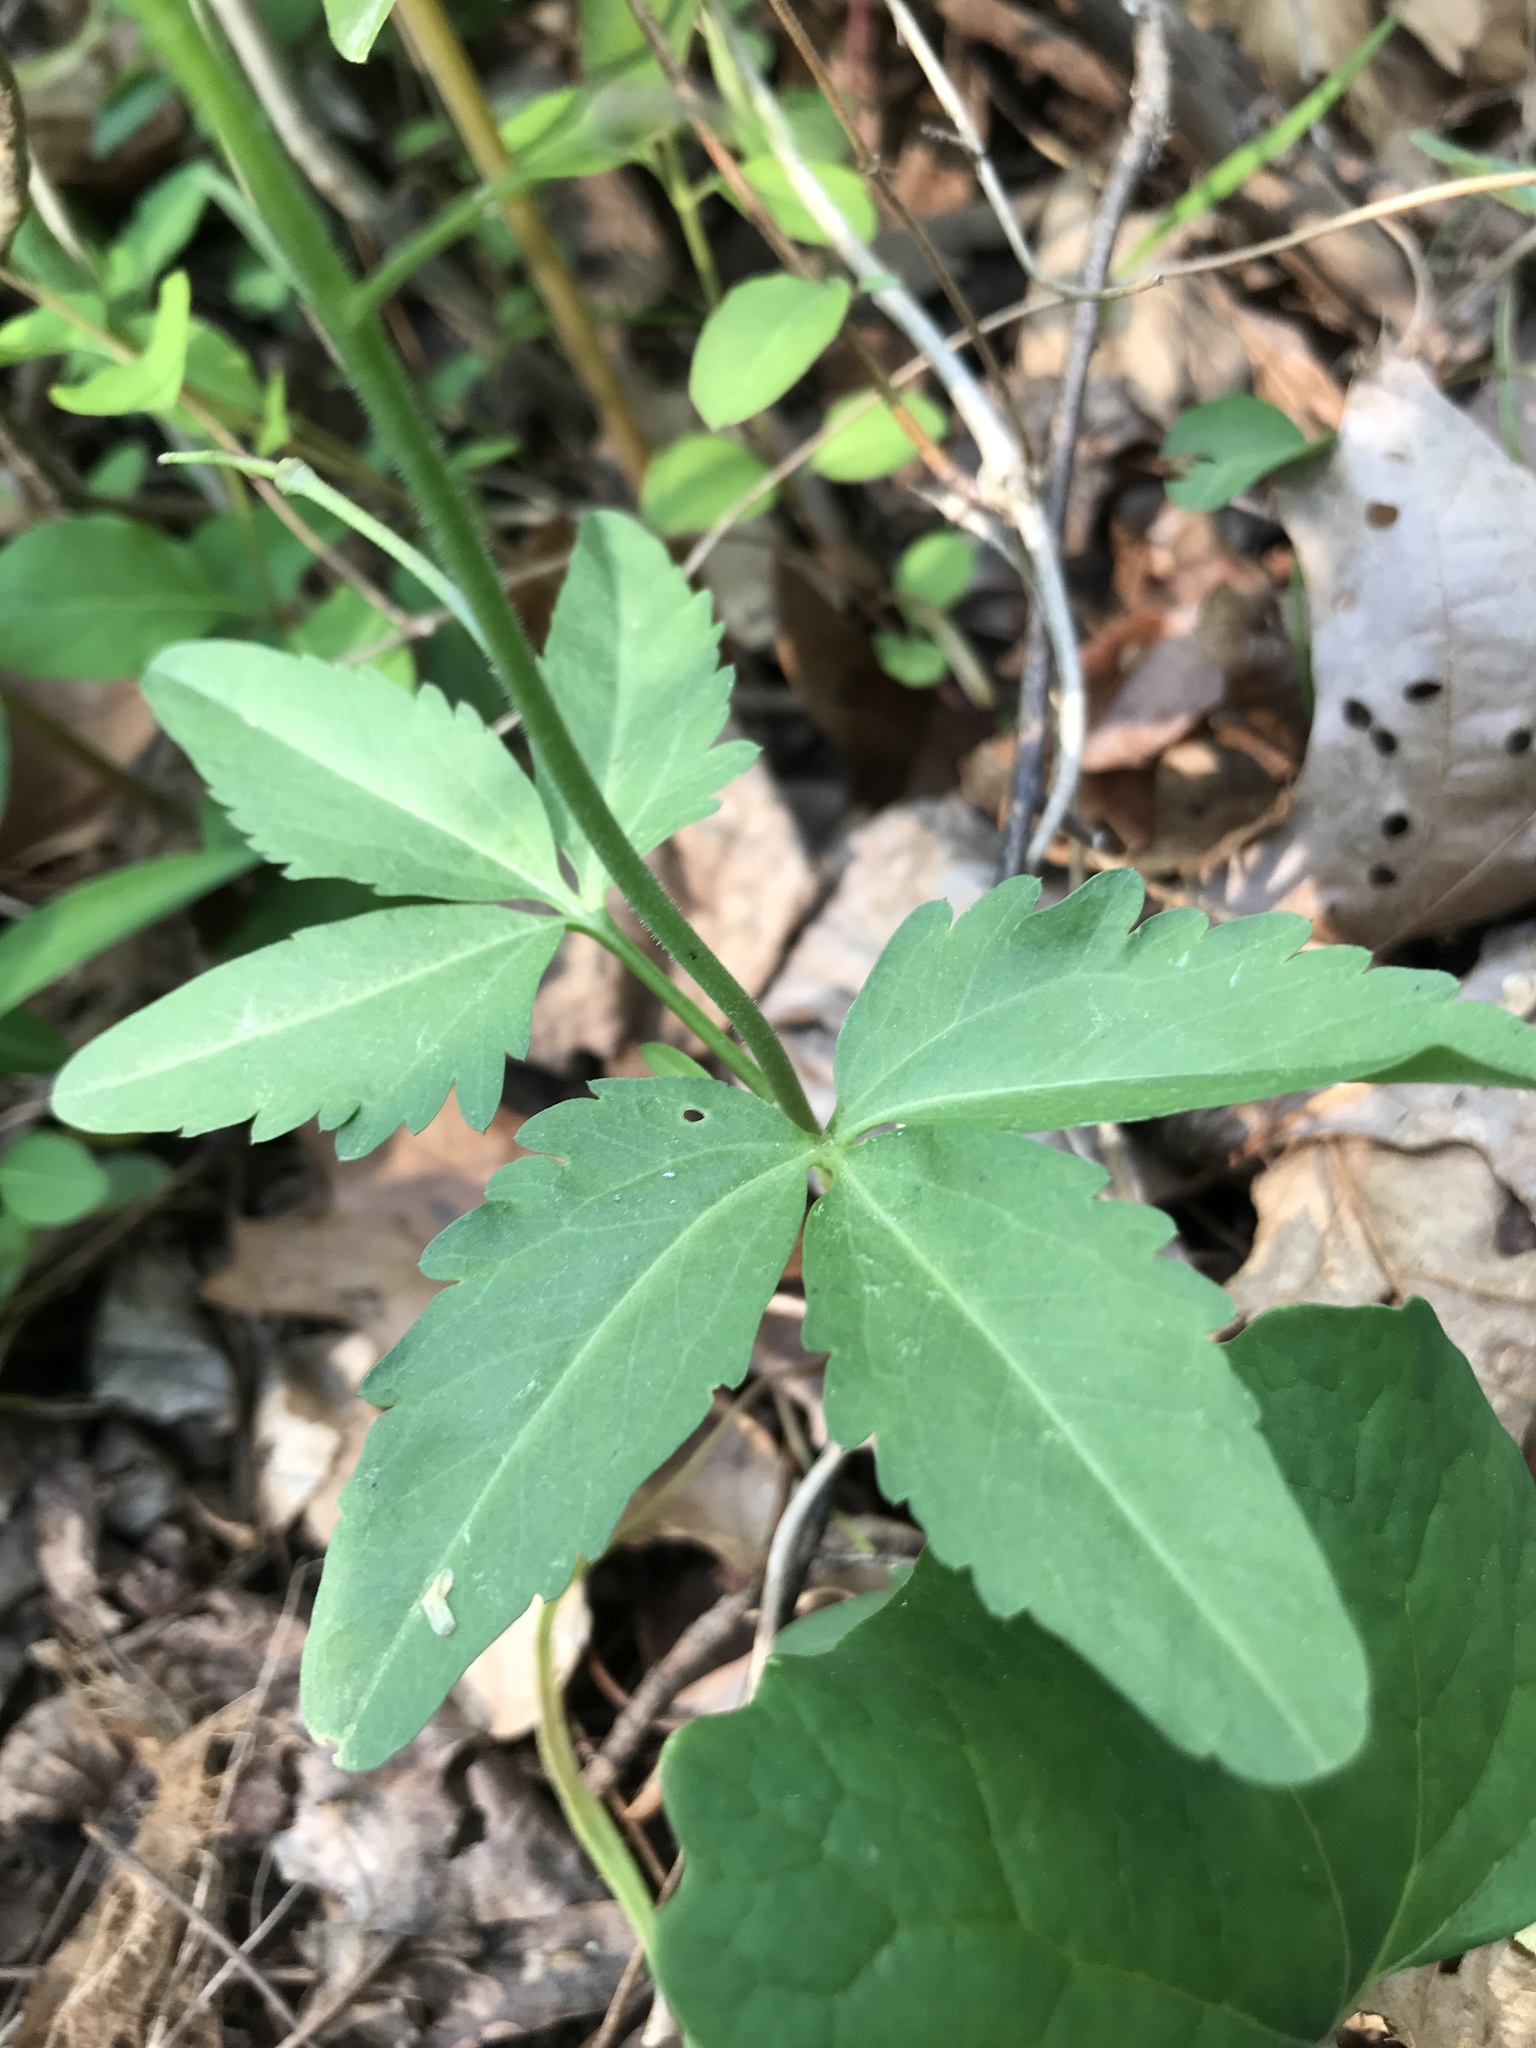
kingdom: Plantae
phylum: Tracheophyta
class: Magnoliopsida
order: Brassicales
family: Brassicaceae
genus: Cardamine
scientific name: Cardamine diphylla
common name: Broad-leaved toothwort
